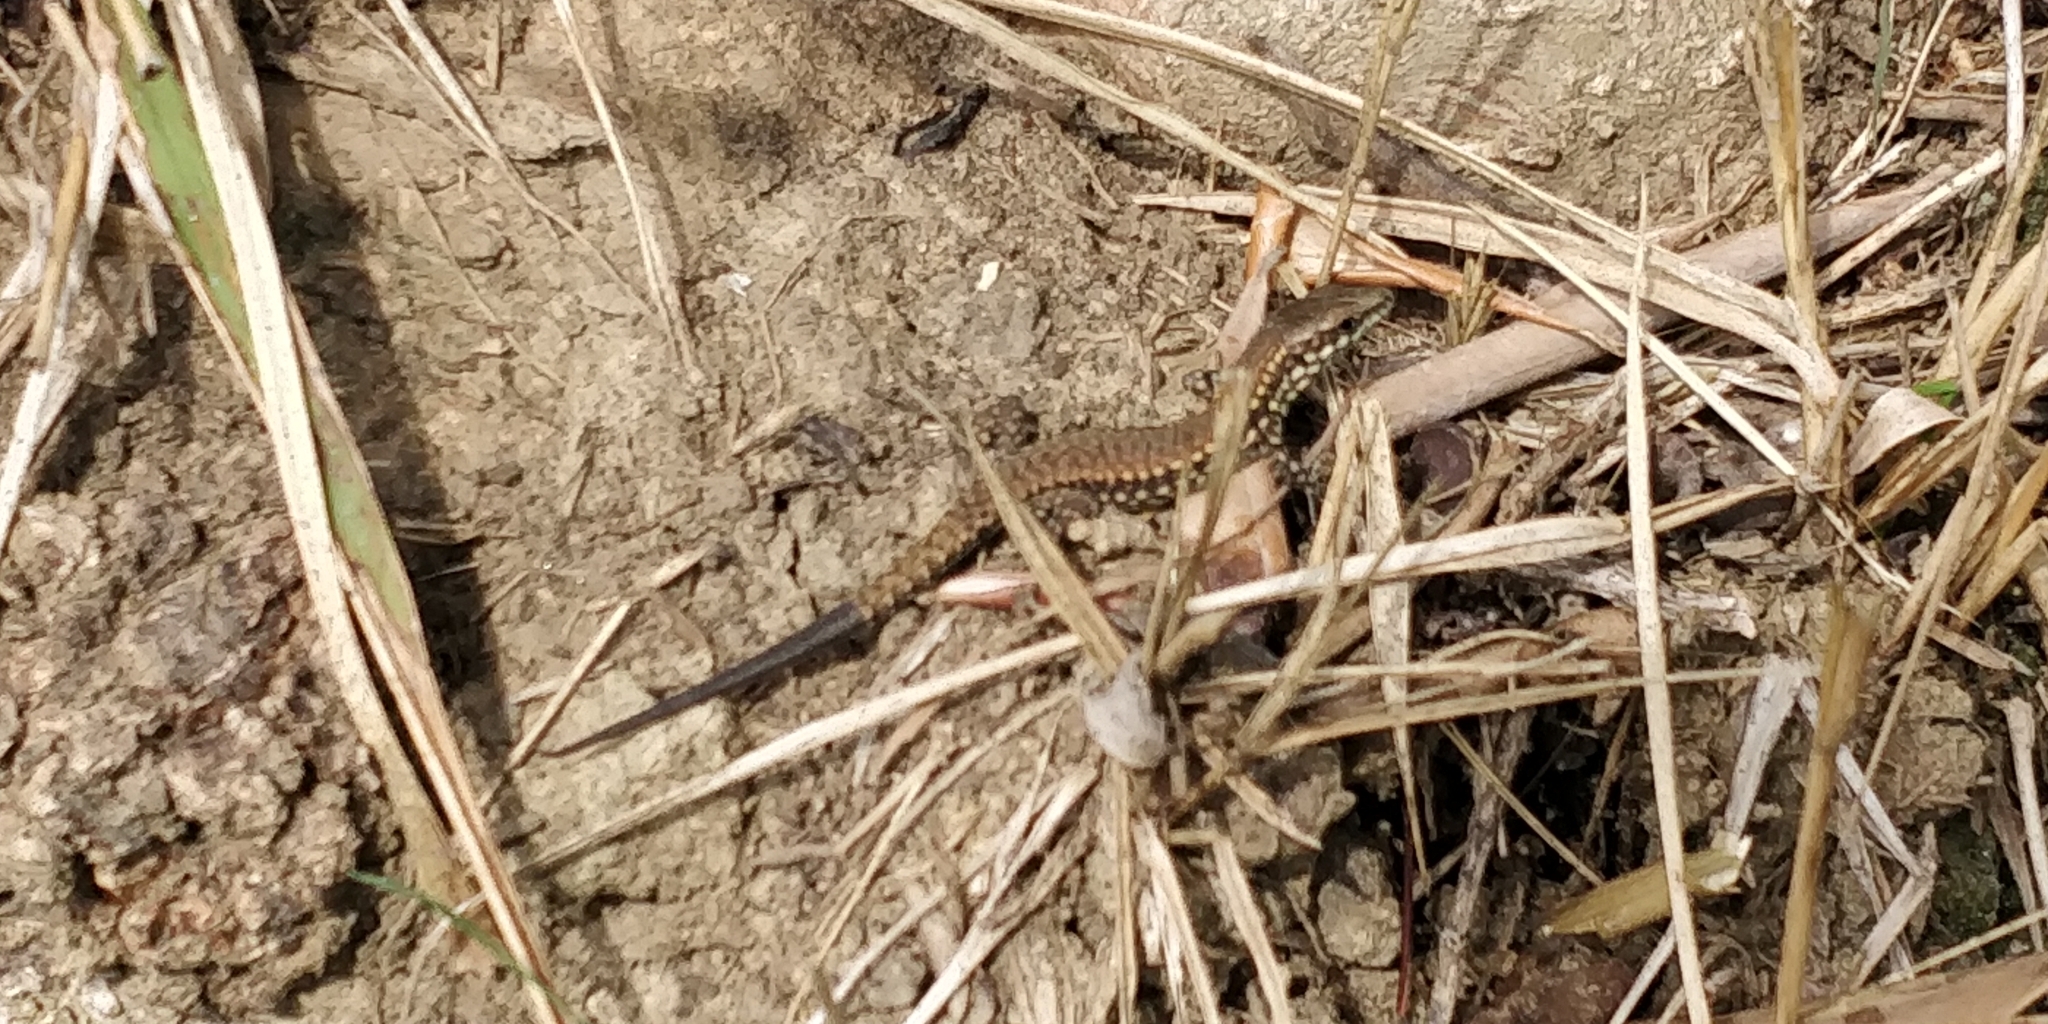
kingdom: Animalia
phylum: Chordata
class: Squamata
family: Lacertidae
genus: Podarcis
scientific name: Podarcis muralis
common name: Common wall lizard
